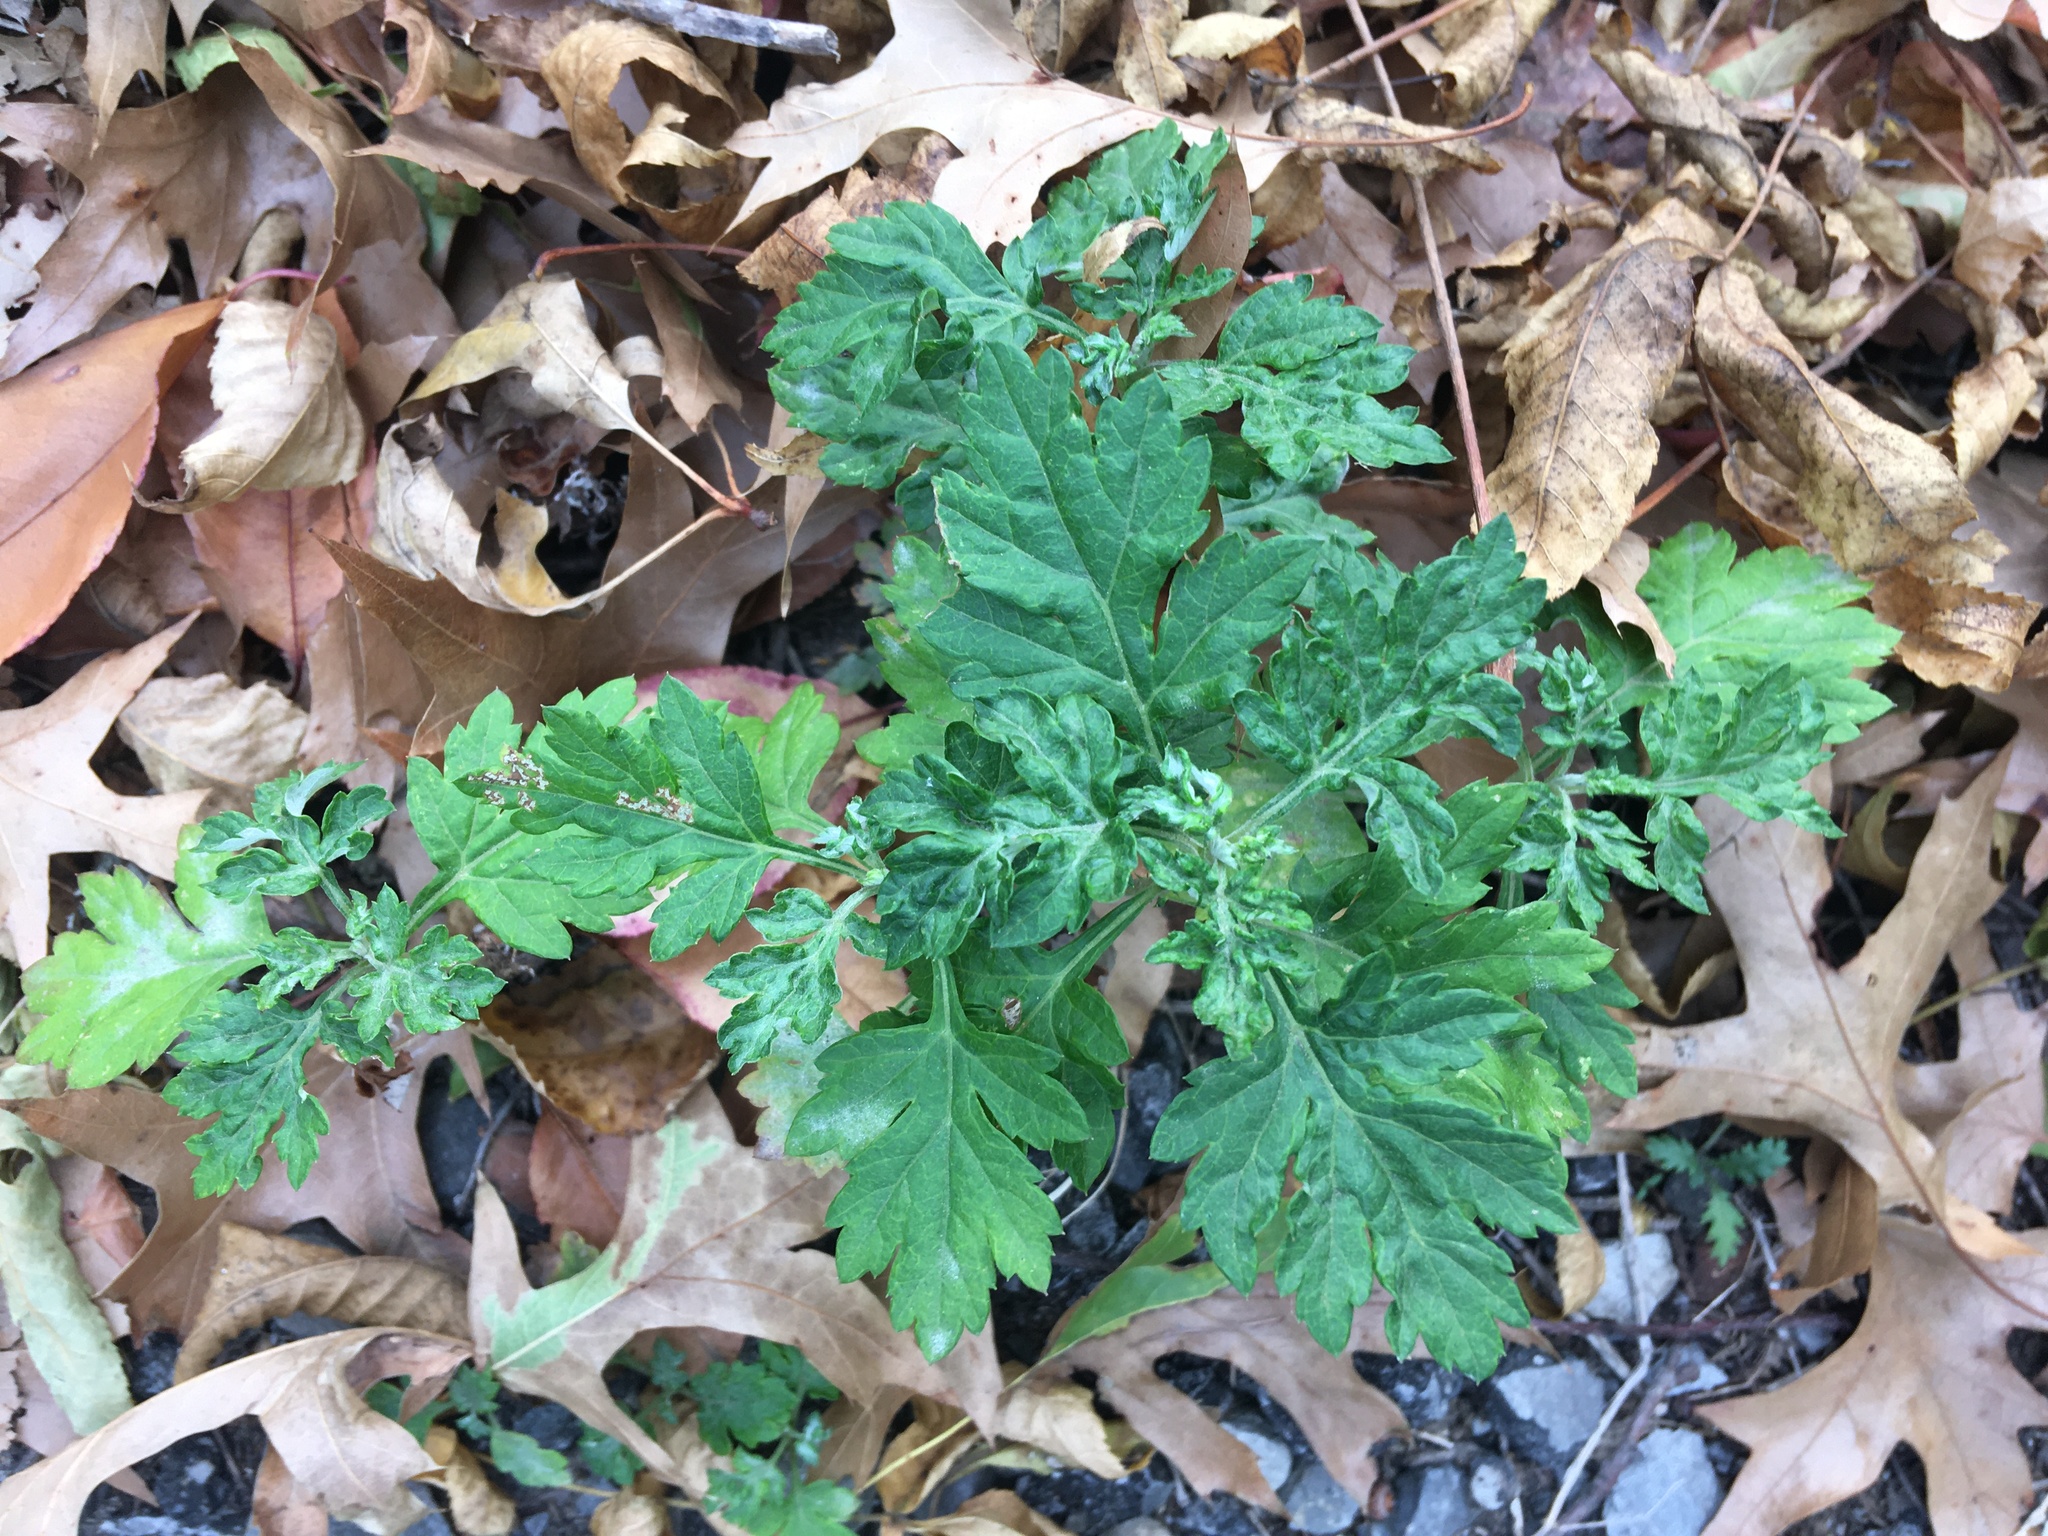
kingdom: Plantae
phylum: Tracheophyta
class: Magnoliopsida
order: Asterales
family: Asteraceae
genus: Artemisia
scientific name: Artemisia vulgaris
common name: Mugwort
